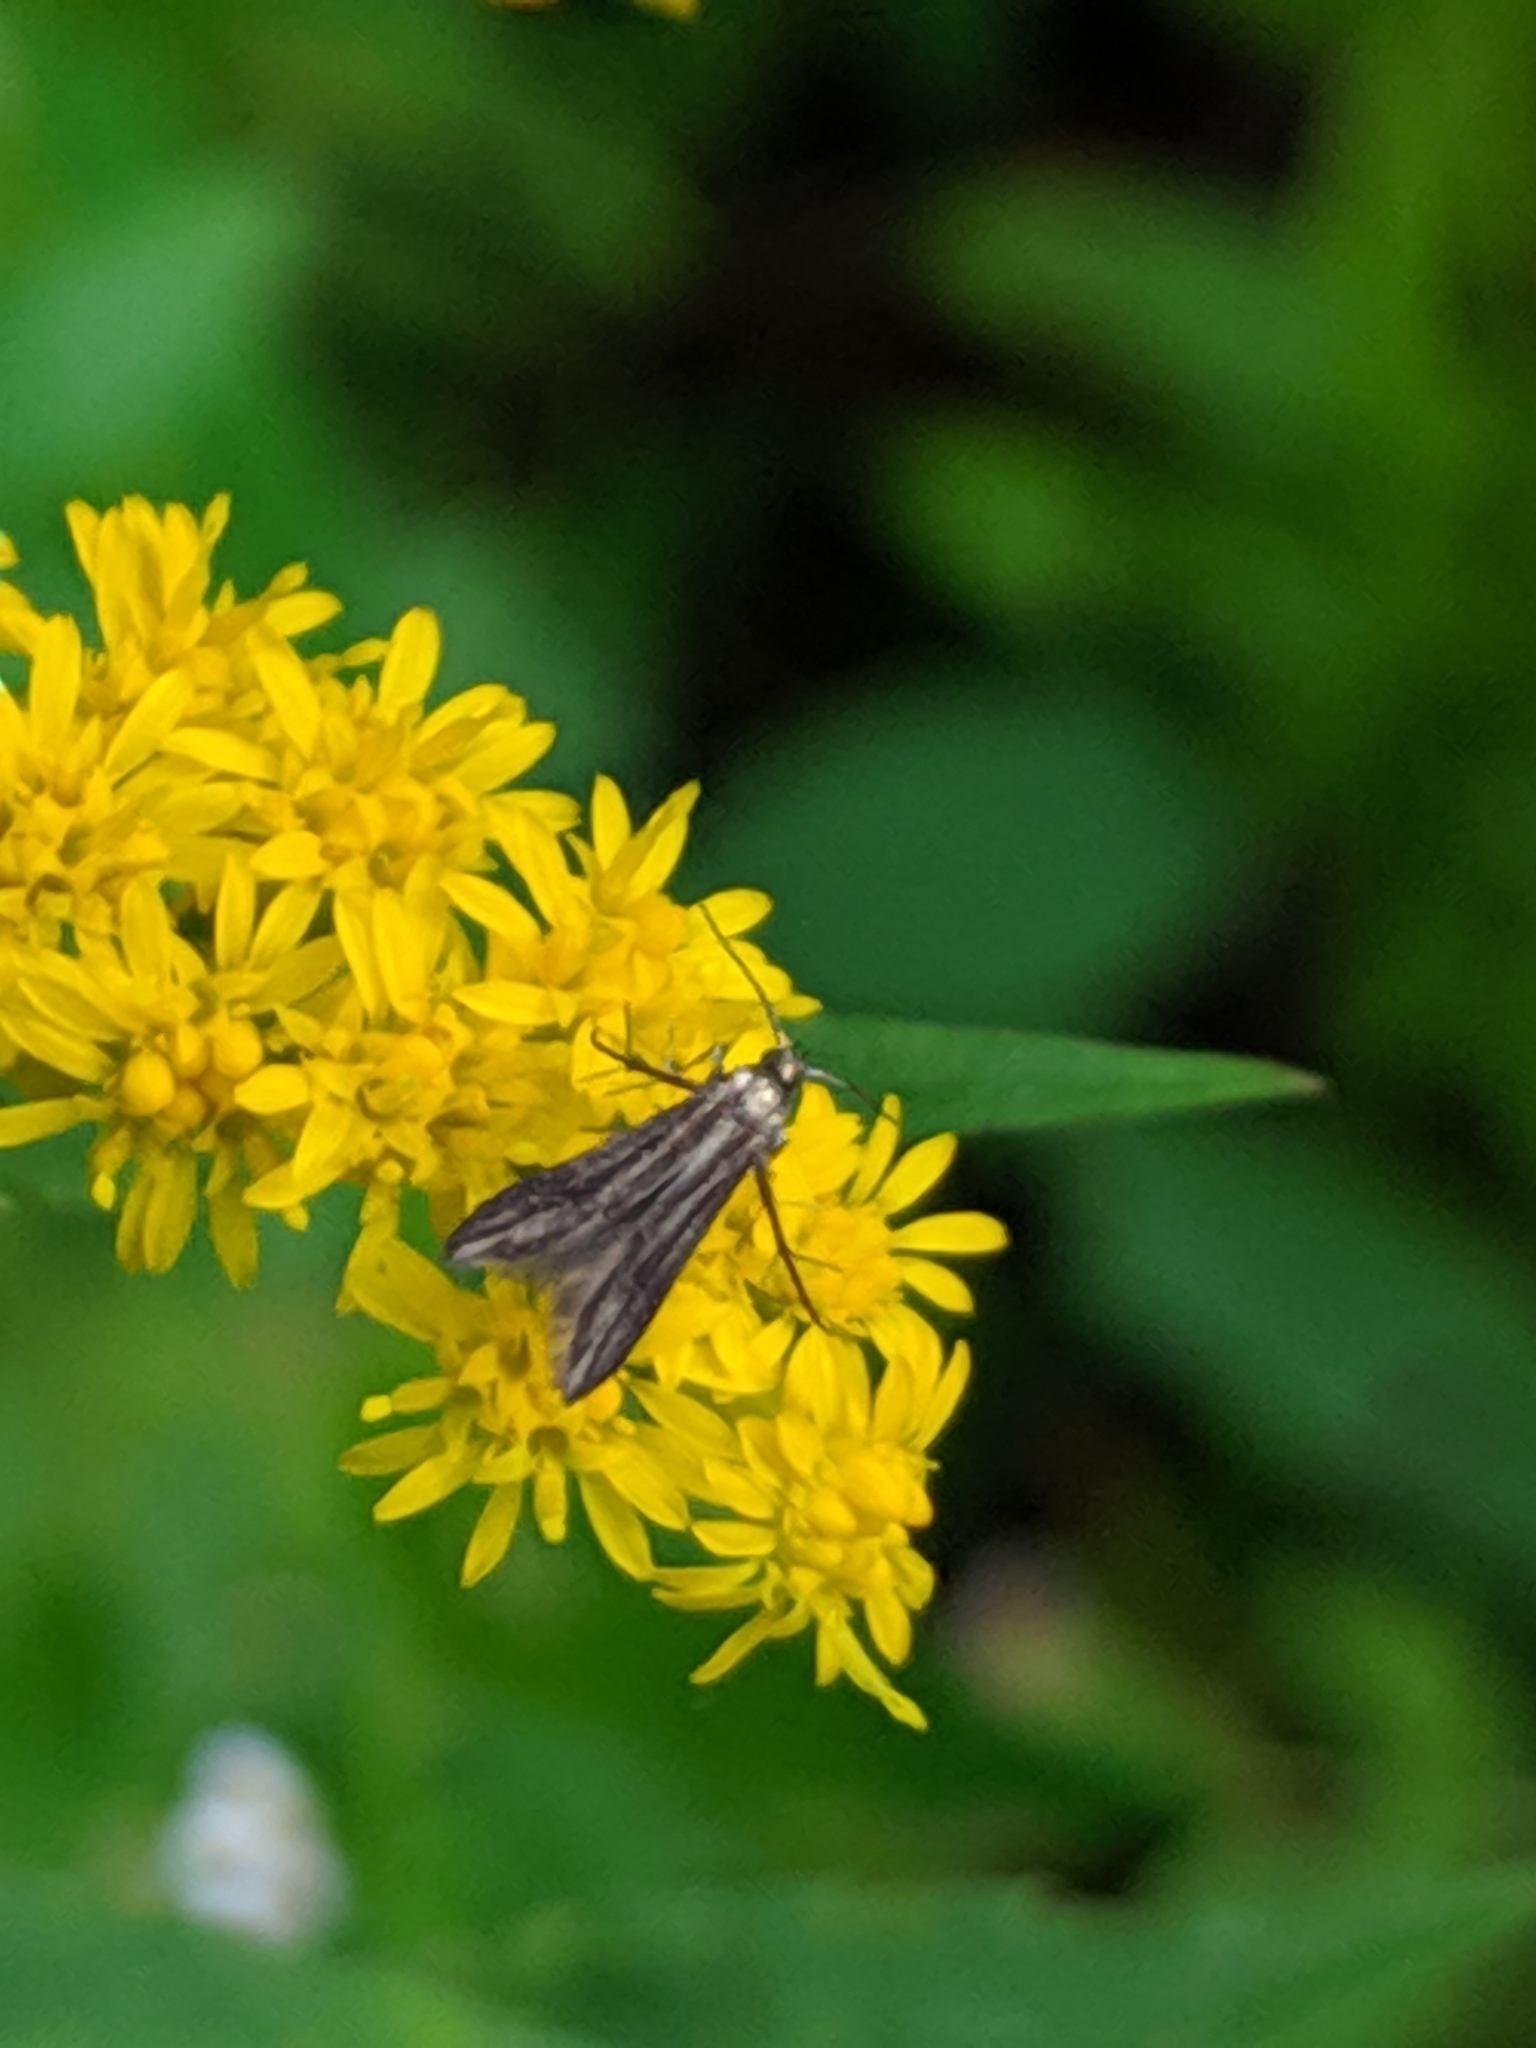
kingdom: Animalia
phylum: Arthropoda
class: Insecta
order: Lepidoptera
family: Schreckensteiniidae
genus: Schreckensteinia
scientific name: Schreckensteinia festaliella
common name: Blackberry skeletonizer
